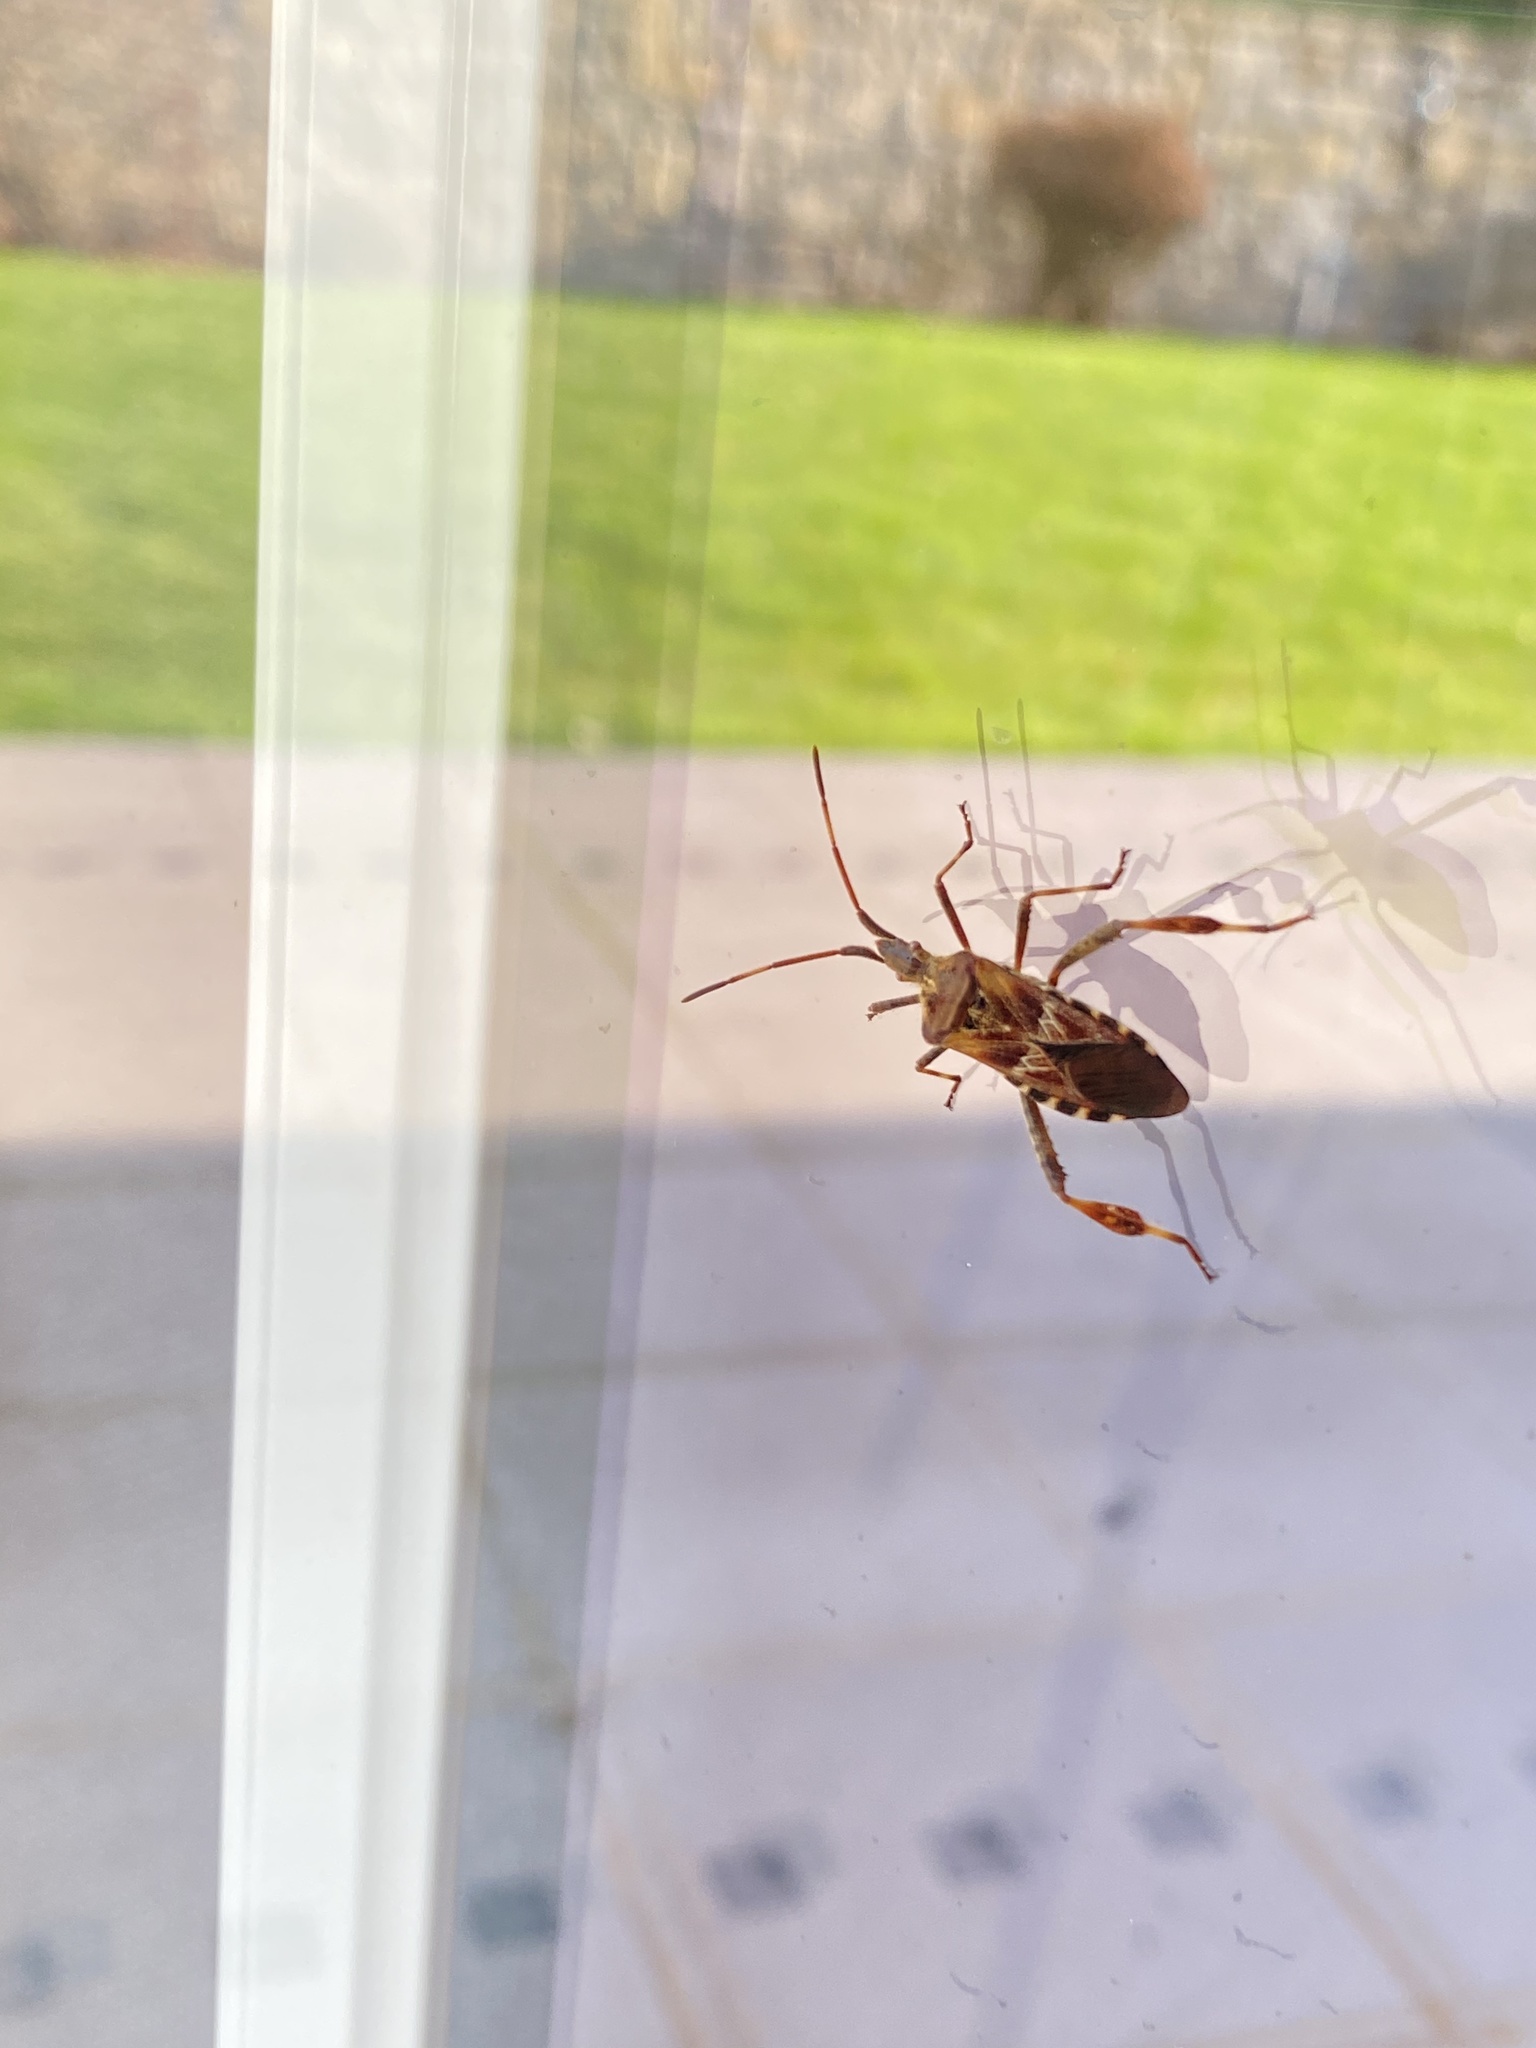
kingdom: Animalia
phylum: Arthropoda
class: Insecta
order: Hemiptera
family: Coreidae
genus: Leptoglossus
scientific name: Leptoglossus occidentalis
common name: Western conifer-seed bug
